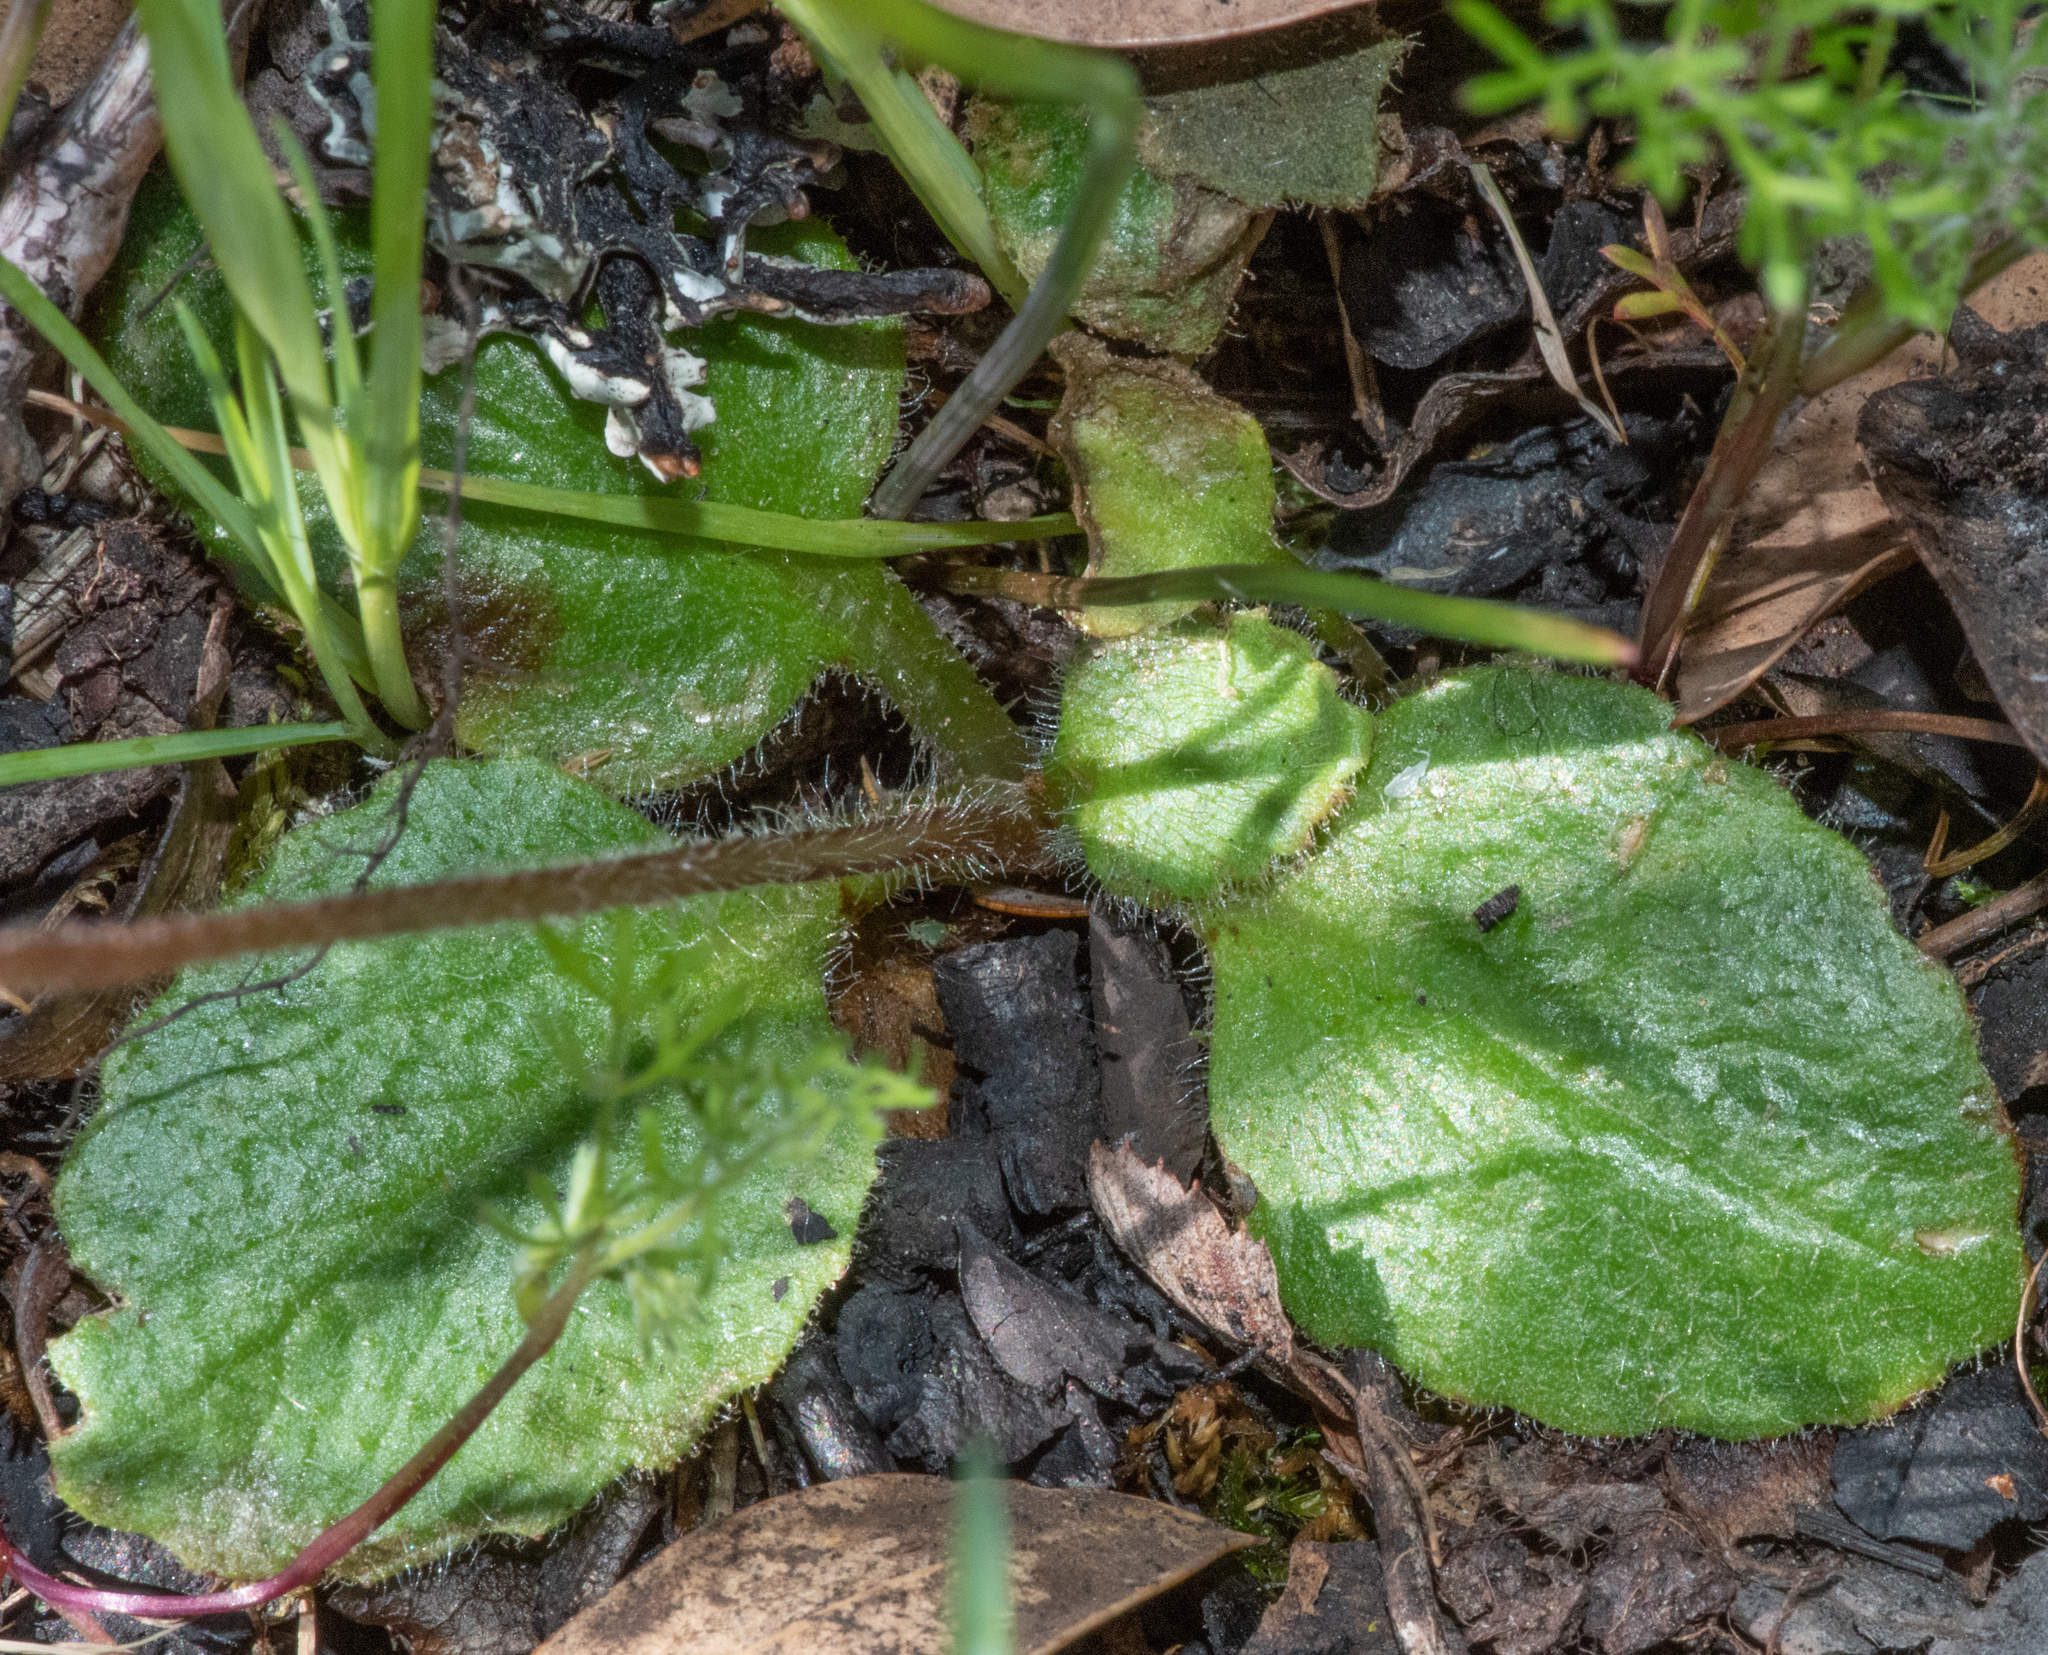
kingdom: Plantae
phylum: Tracheophyta
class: Magnoliopsida
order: Saxifragales
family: Saxifragaceae
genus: Micranthes
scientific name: Micranthes californica
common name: California saxifrage
